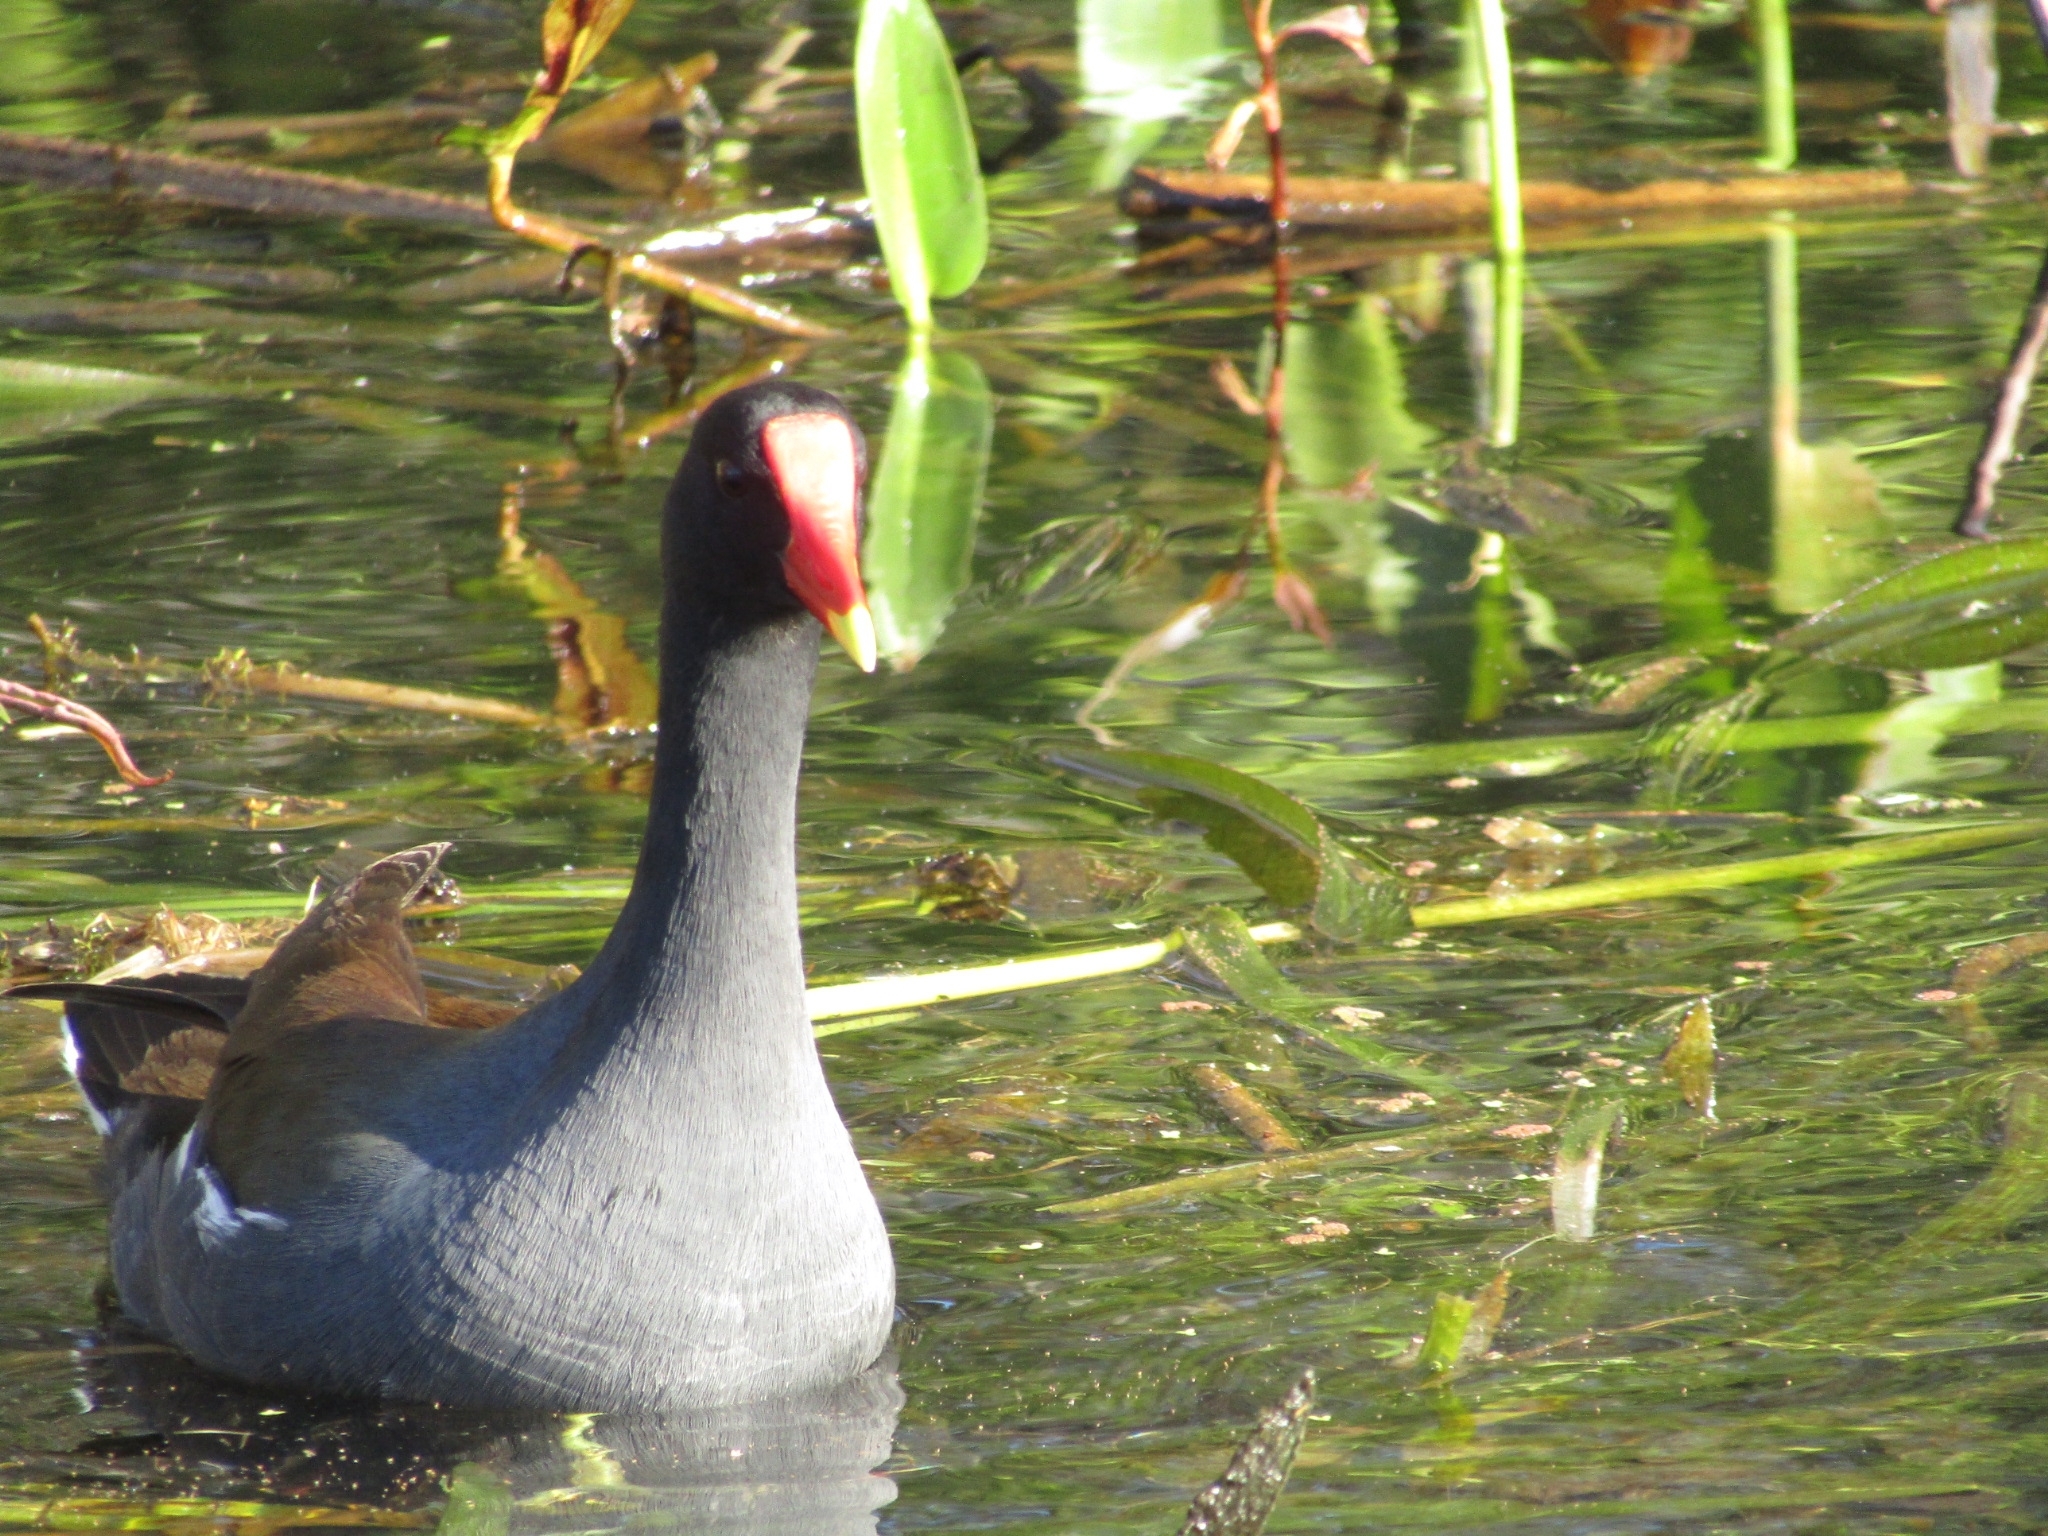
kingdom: Animalia
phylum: Chordata
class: Aves
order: Gruiformes
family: Rallidae
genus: Gallinula
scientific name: Gallinula chloropus
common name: Common moorhen
